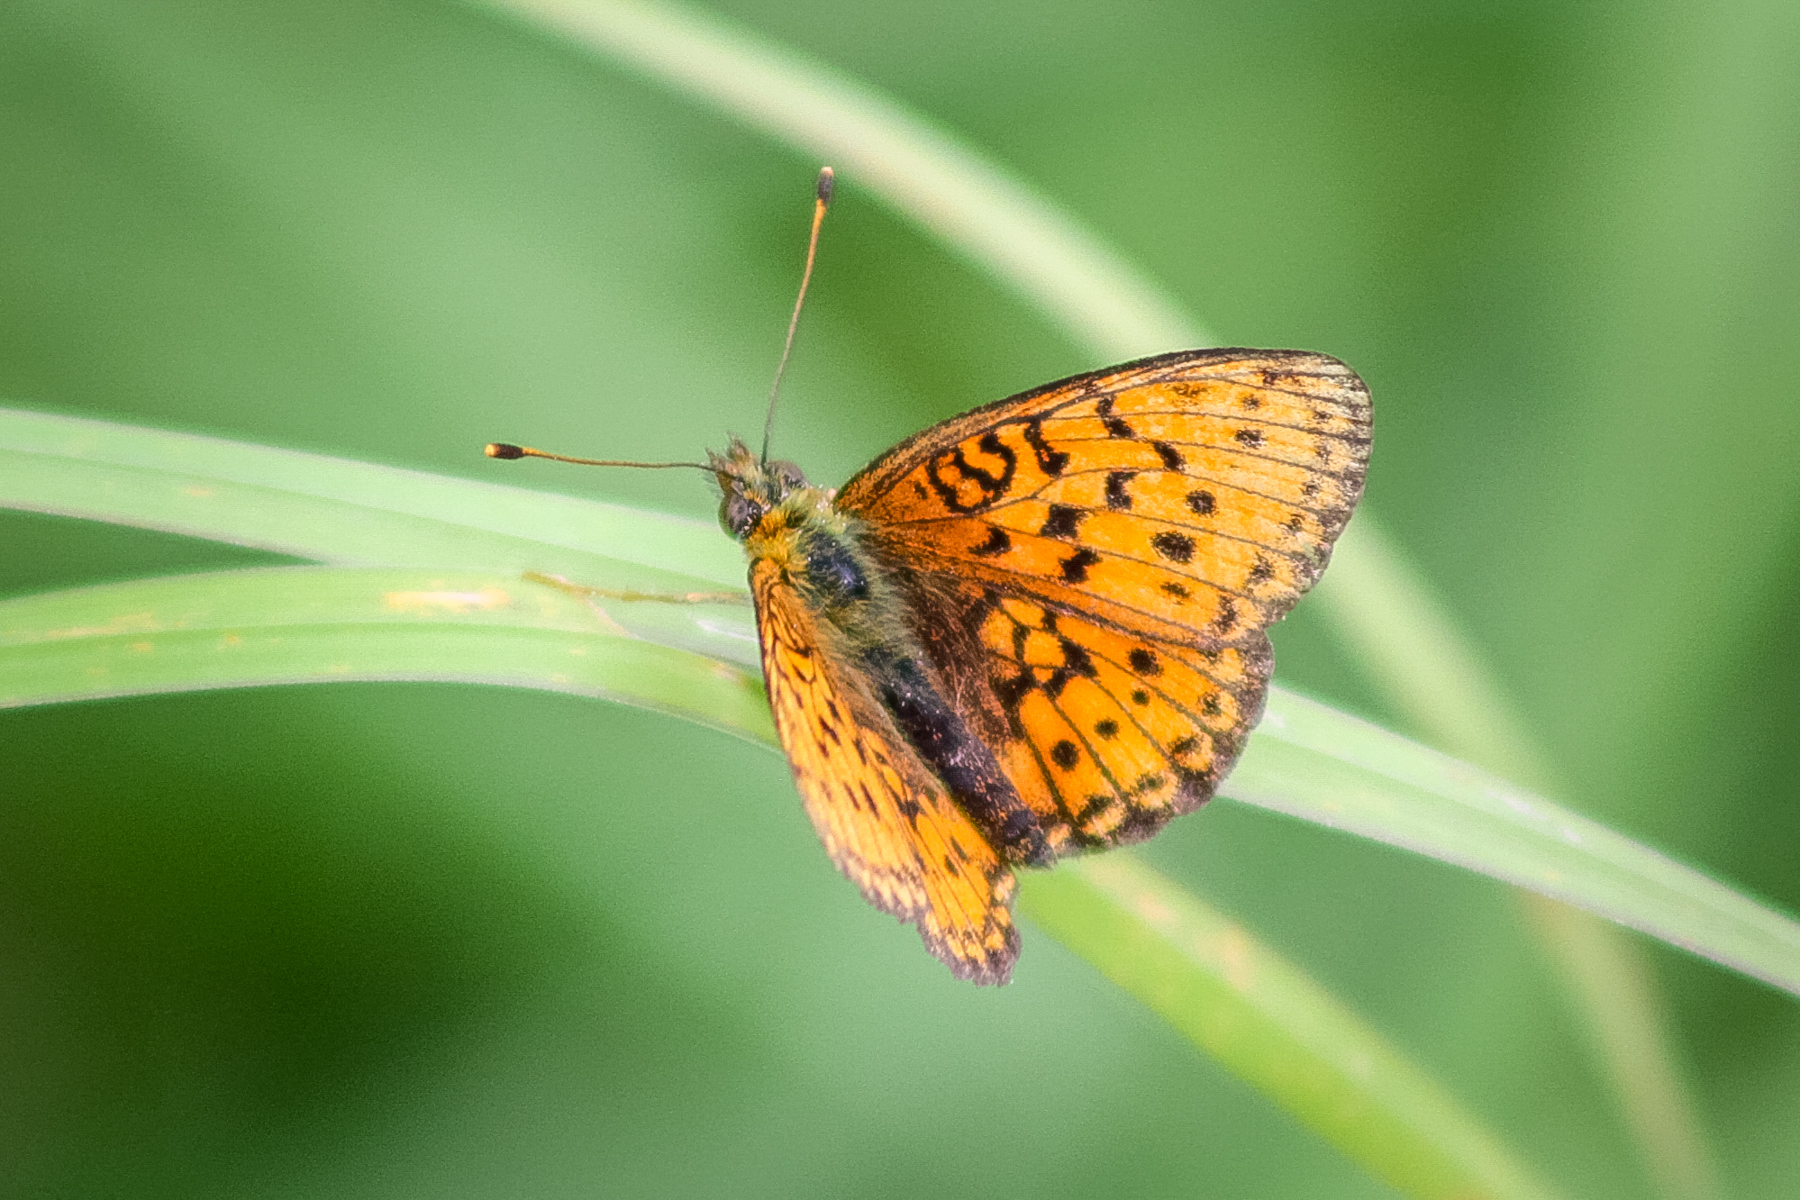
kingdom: Animalia
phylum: Arthropoda
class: Insecta
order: Lepidoptera
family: Nymphalidae
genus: Brenthis
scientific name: Brenthis ino
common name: Lesser marbled fritillary
